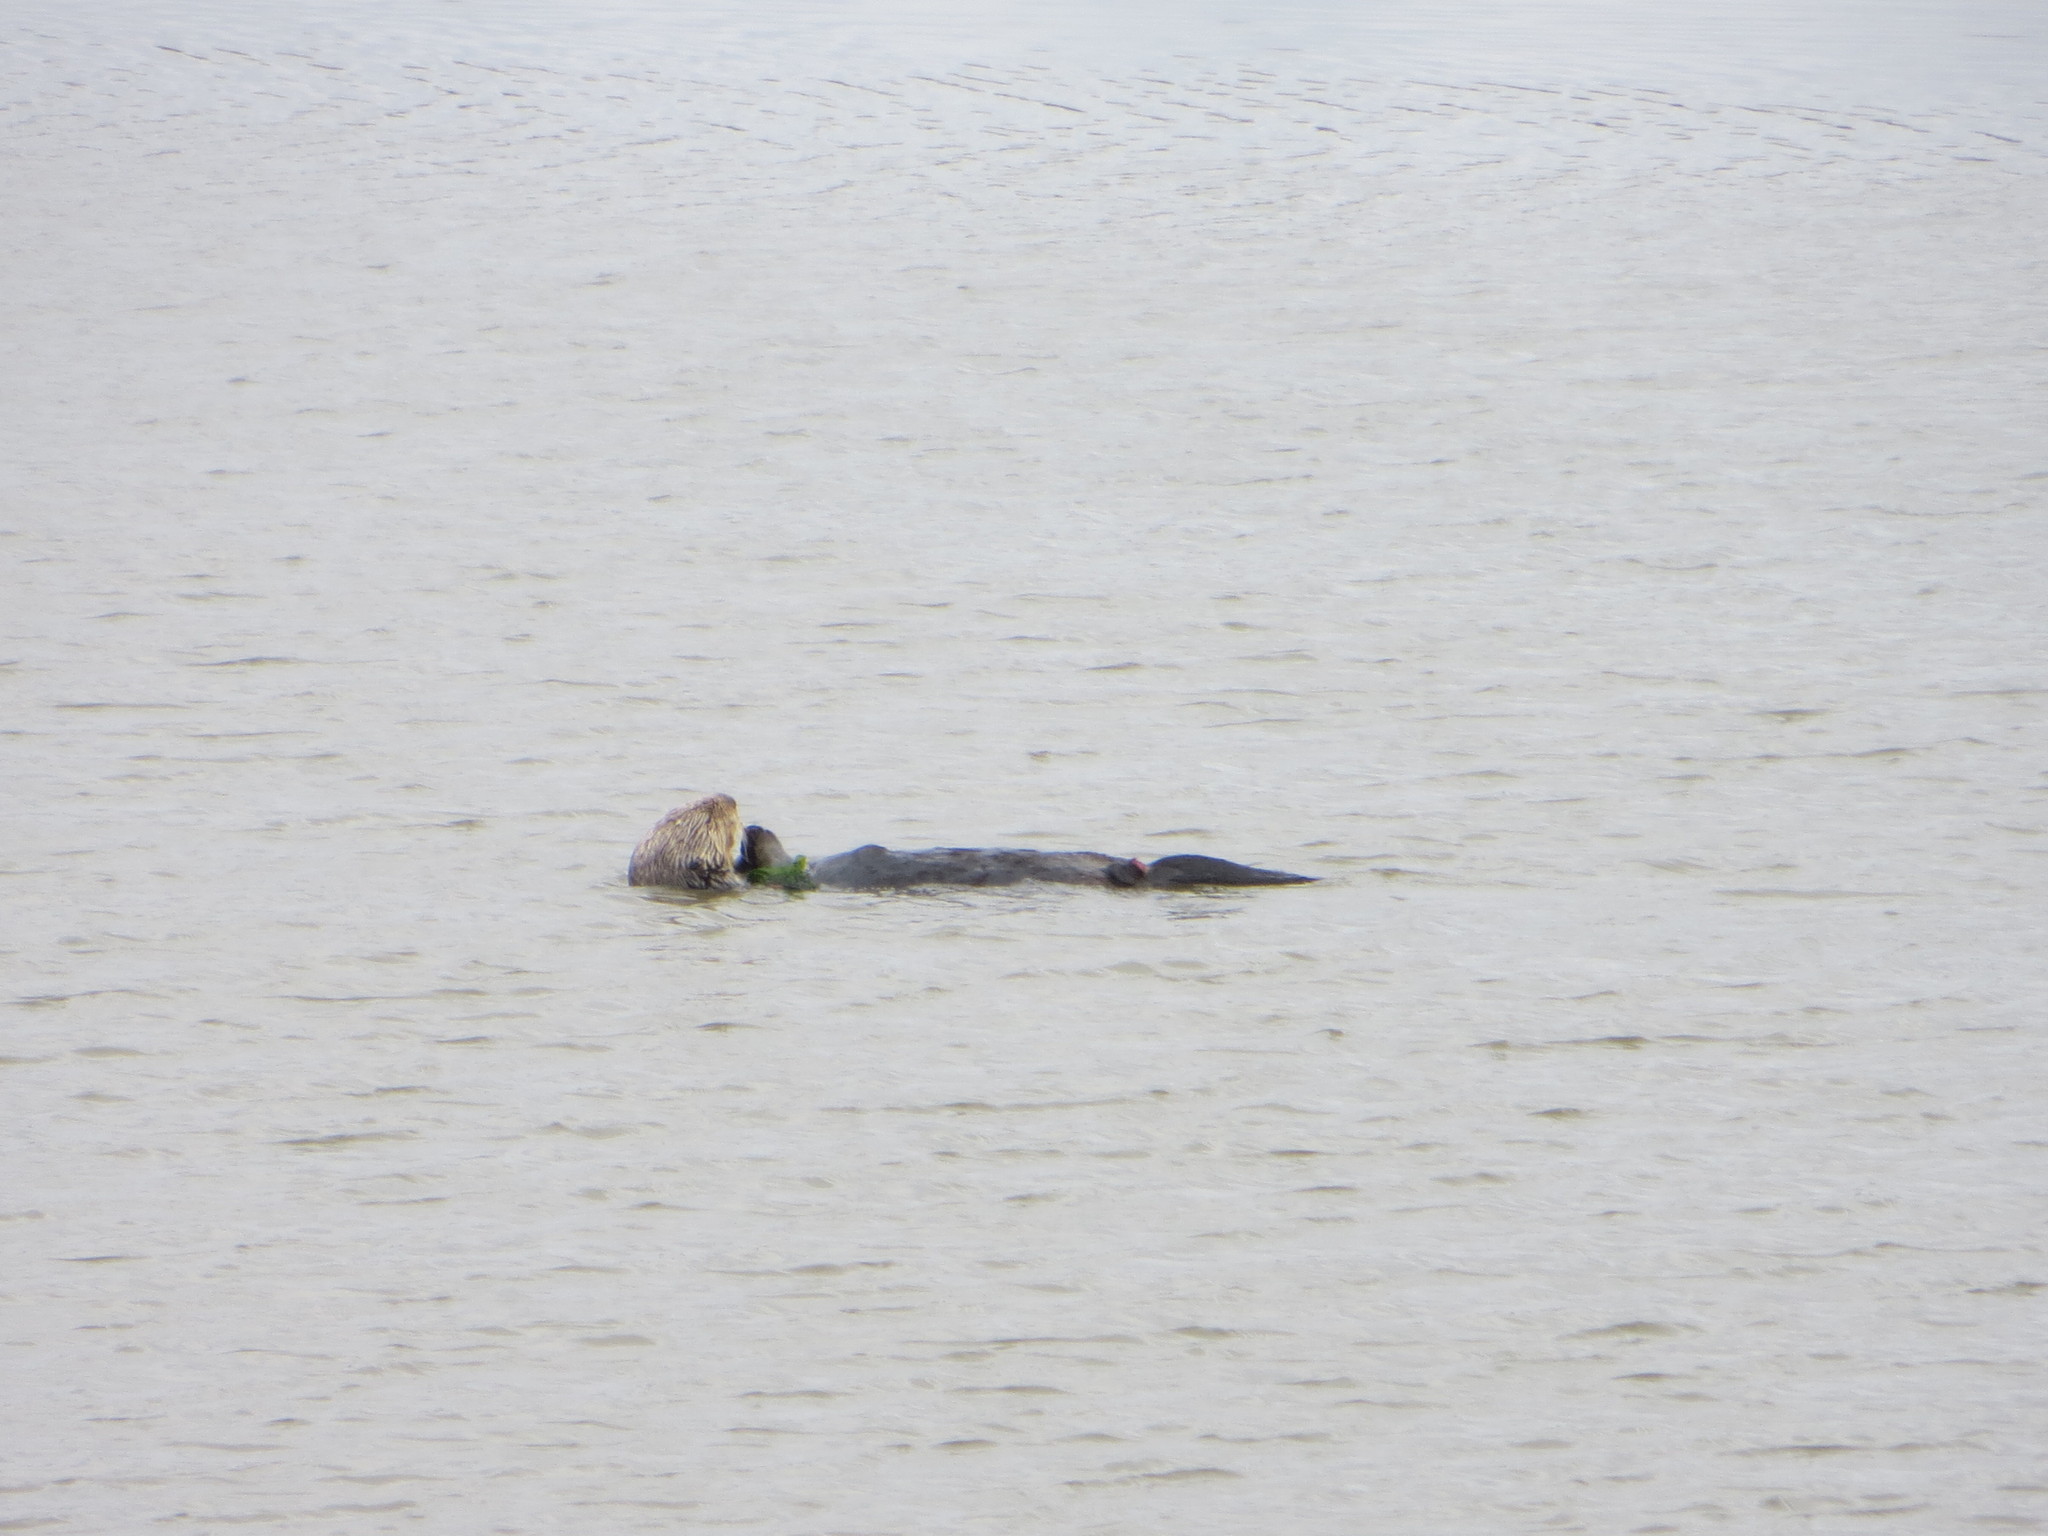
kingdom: Animalia
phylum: Chordata
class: Mammalia
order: Carnivora
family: Mustelidae
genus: Enhydra
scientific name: Enhydra lutris
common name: Sea otter
